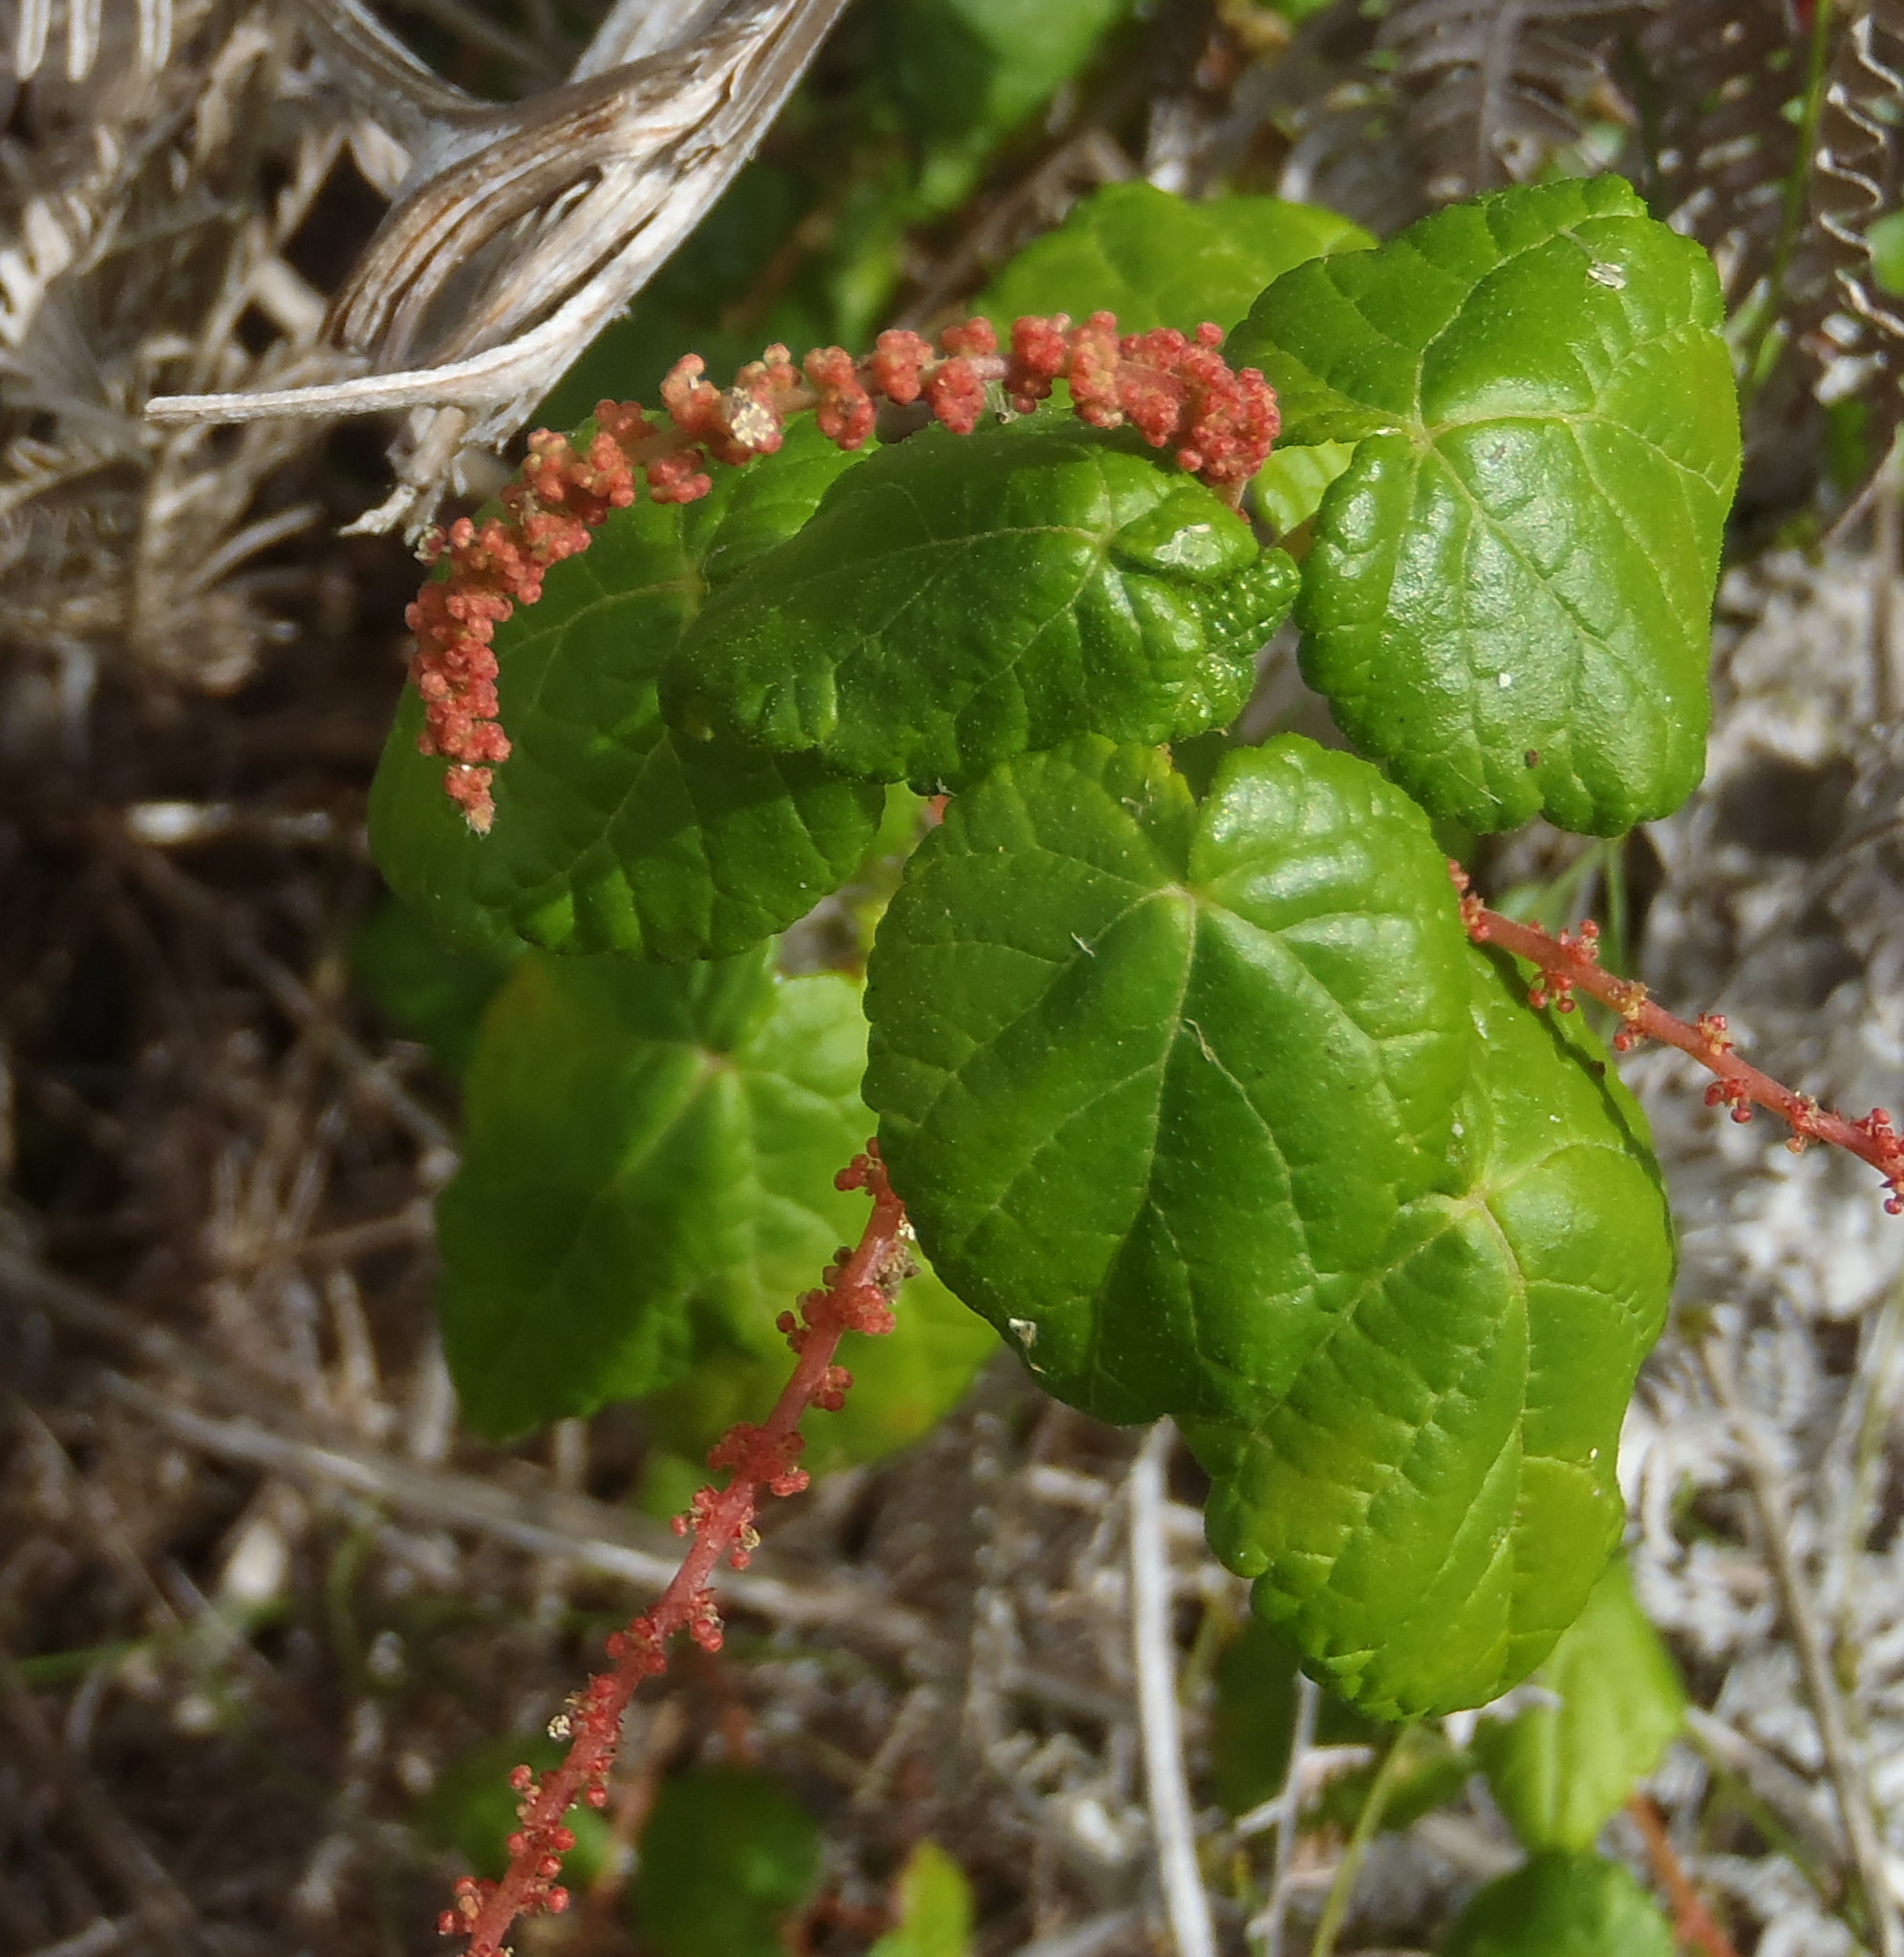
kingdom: Plantae
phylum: Tracheophyta
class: Magnoliopsida
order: Malpighiales
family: Euphorbiaceae
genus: Bernardia
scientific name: Bernardia corensis
